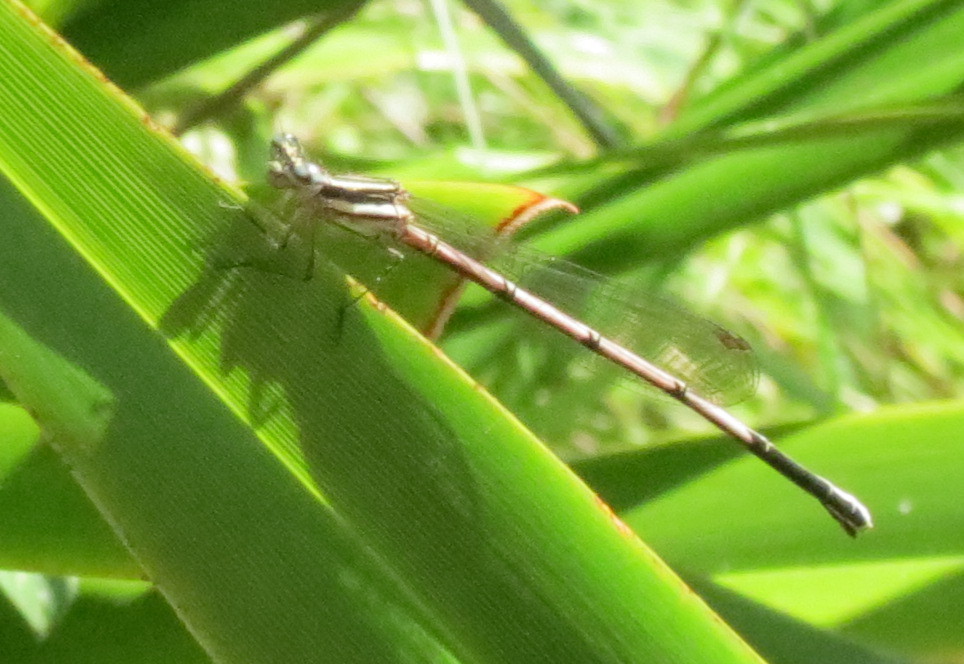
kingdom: Animalia
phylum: Arthropoda
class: Insecta
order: Odonata
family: Platycnemididae
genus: Elattoneura
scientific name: Elattoneura glauca
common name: Common threadtail
